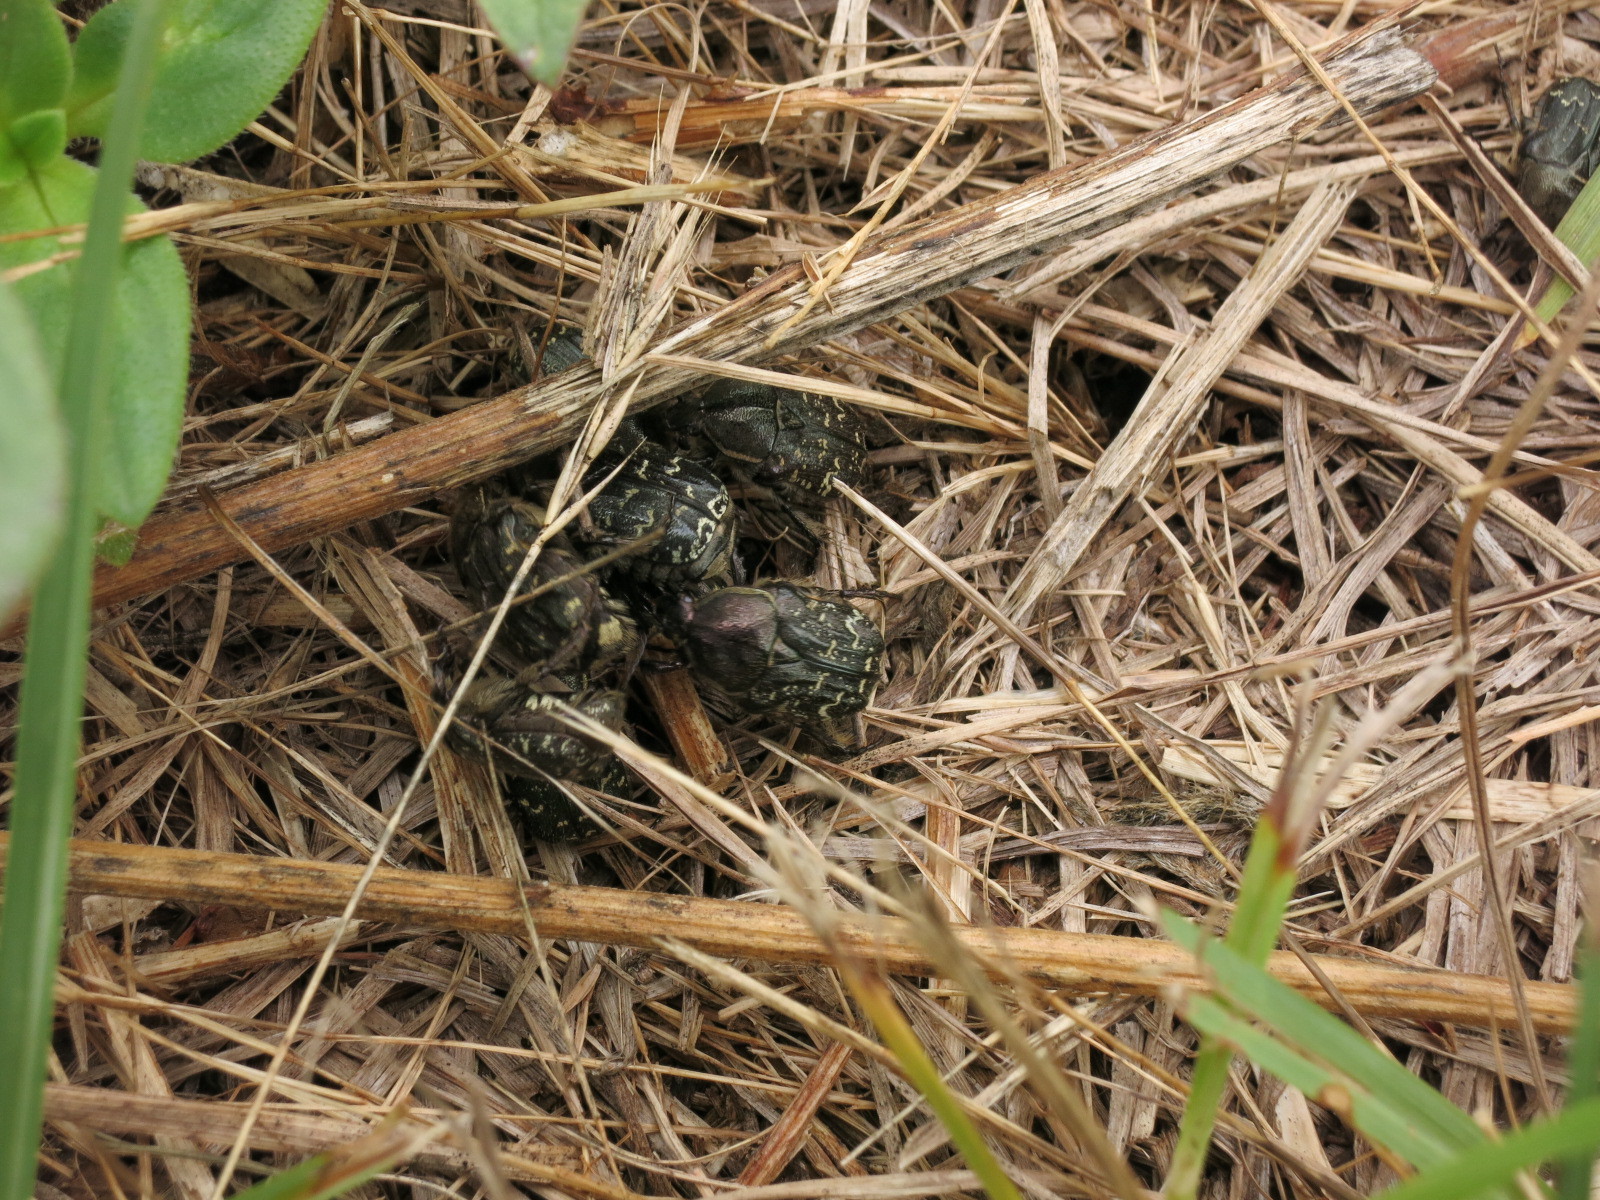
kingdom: Animalia
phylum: Arthropoda
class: Insecta
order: Coleoptera
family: Scarabaeidae
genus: Euphoria
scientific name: Euphoria sepulcralis
